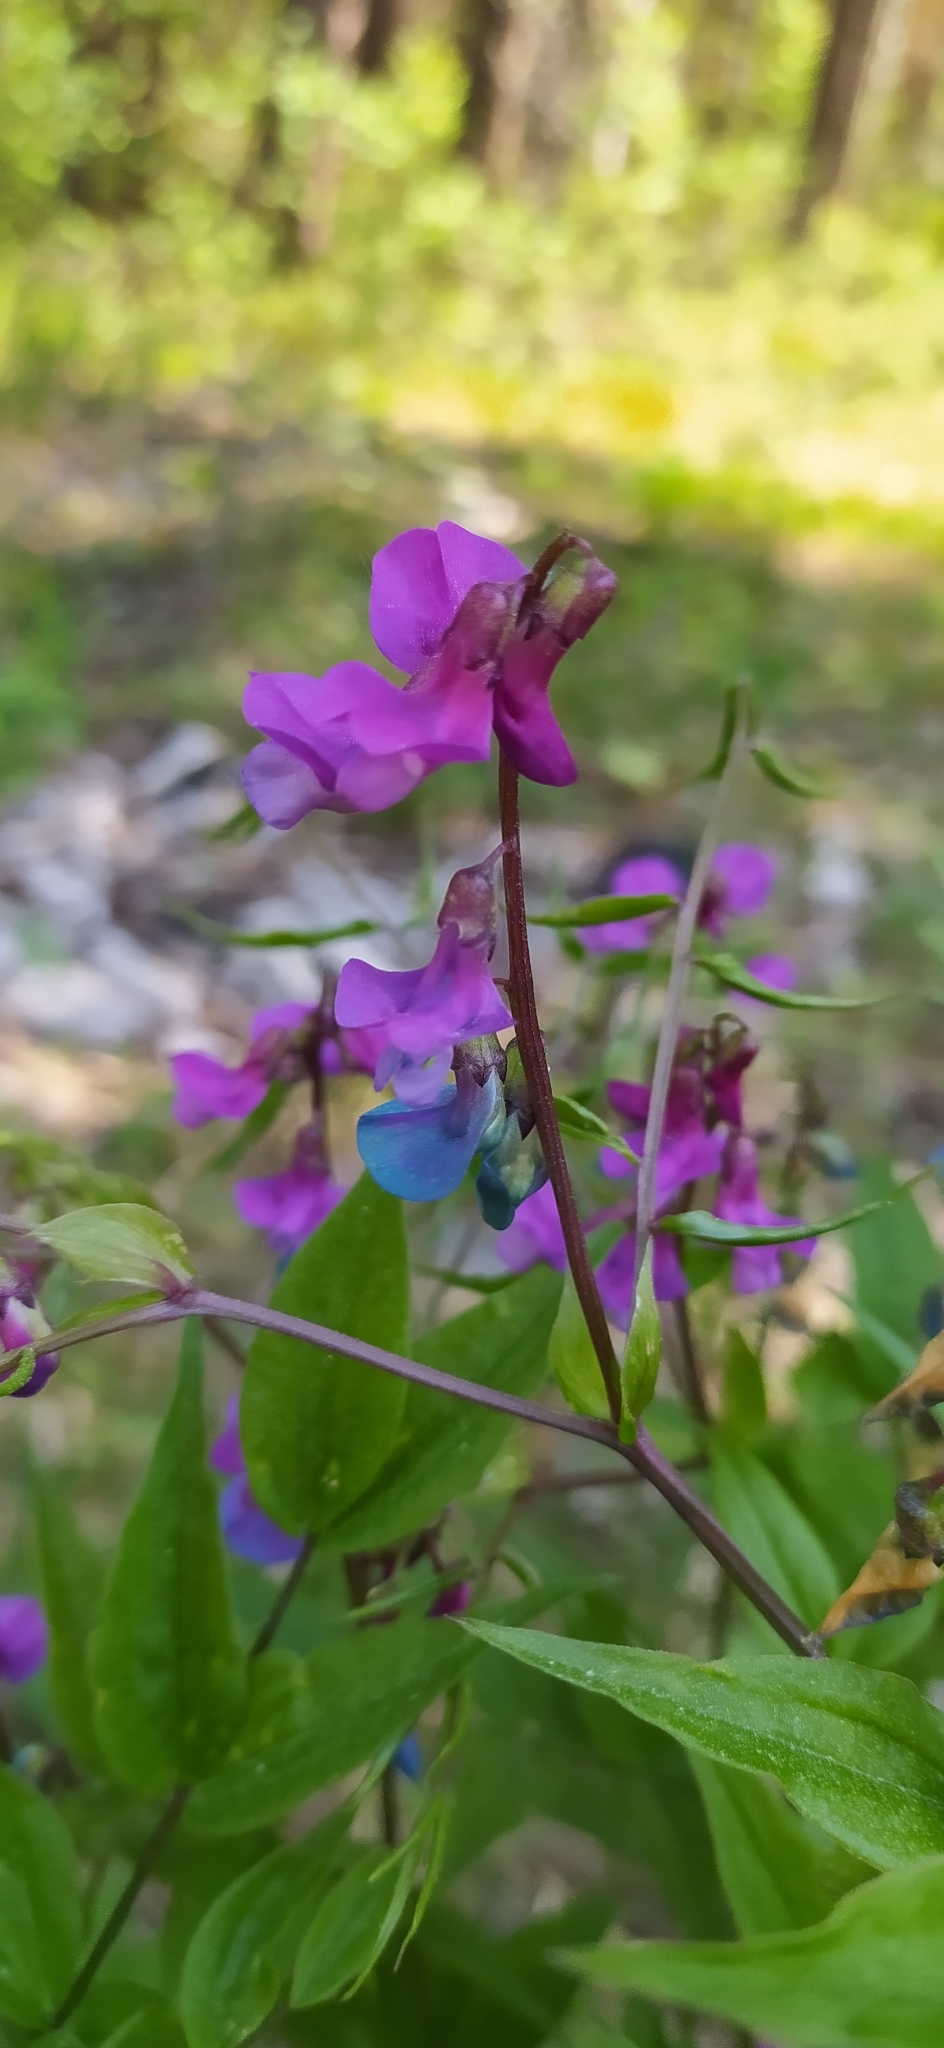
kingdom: Plantae
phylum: Tracheophyta
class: Magnoliopsida
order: Fabales
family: Fabaceae
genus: Lathyrus
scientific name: Lathyrus vernus
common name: Spring pea
